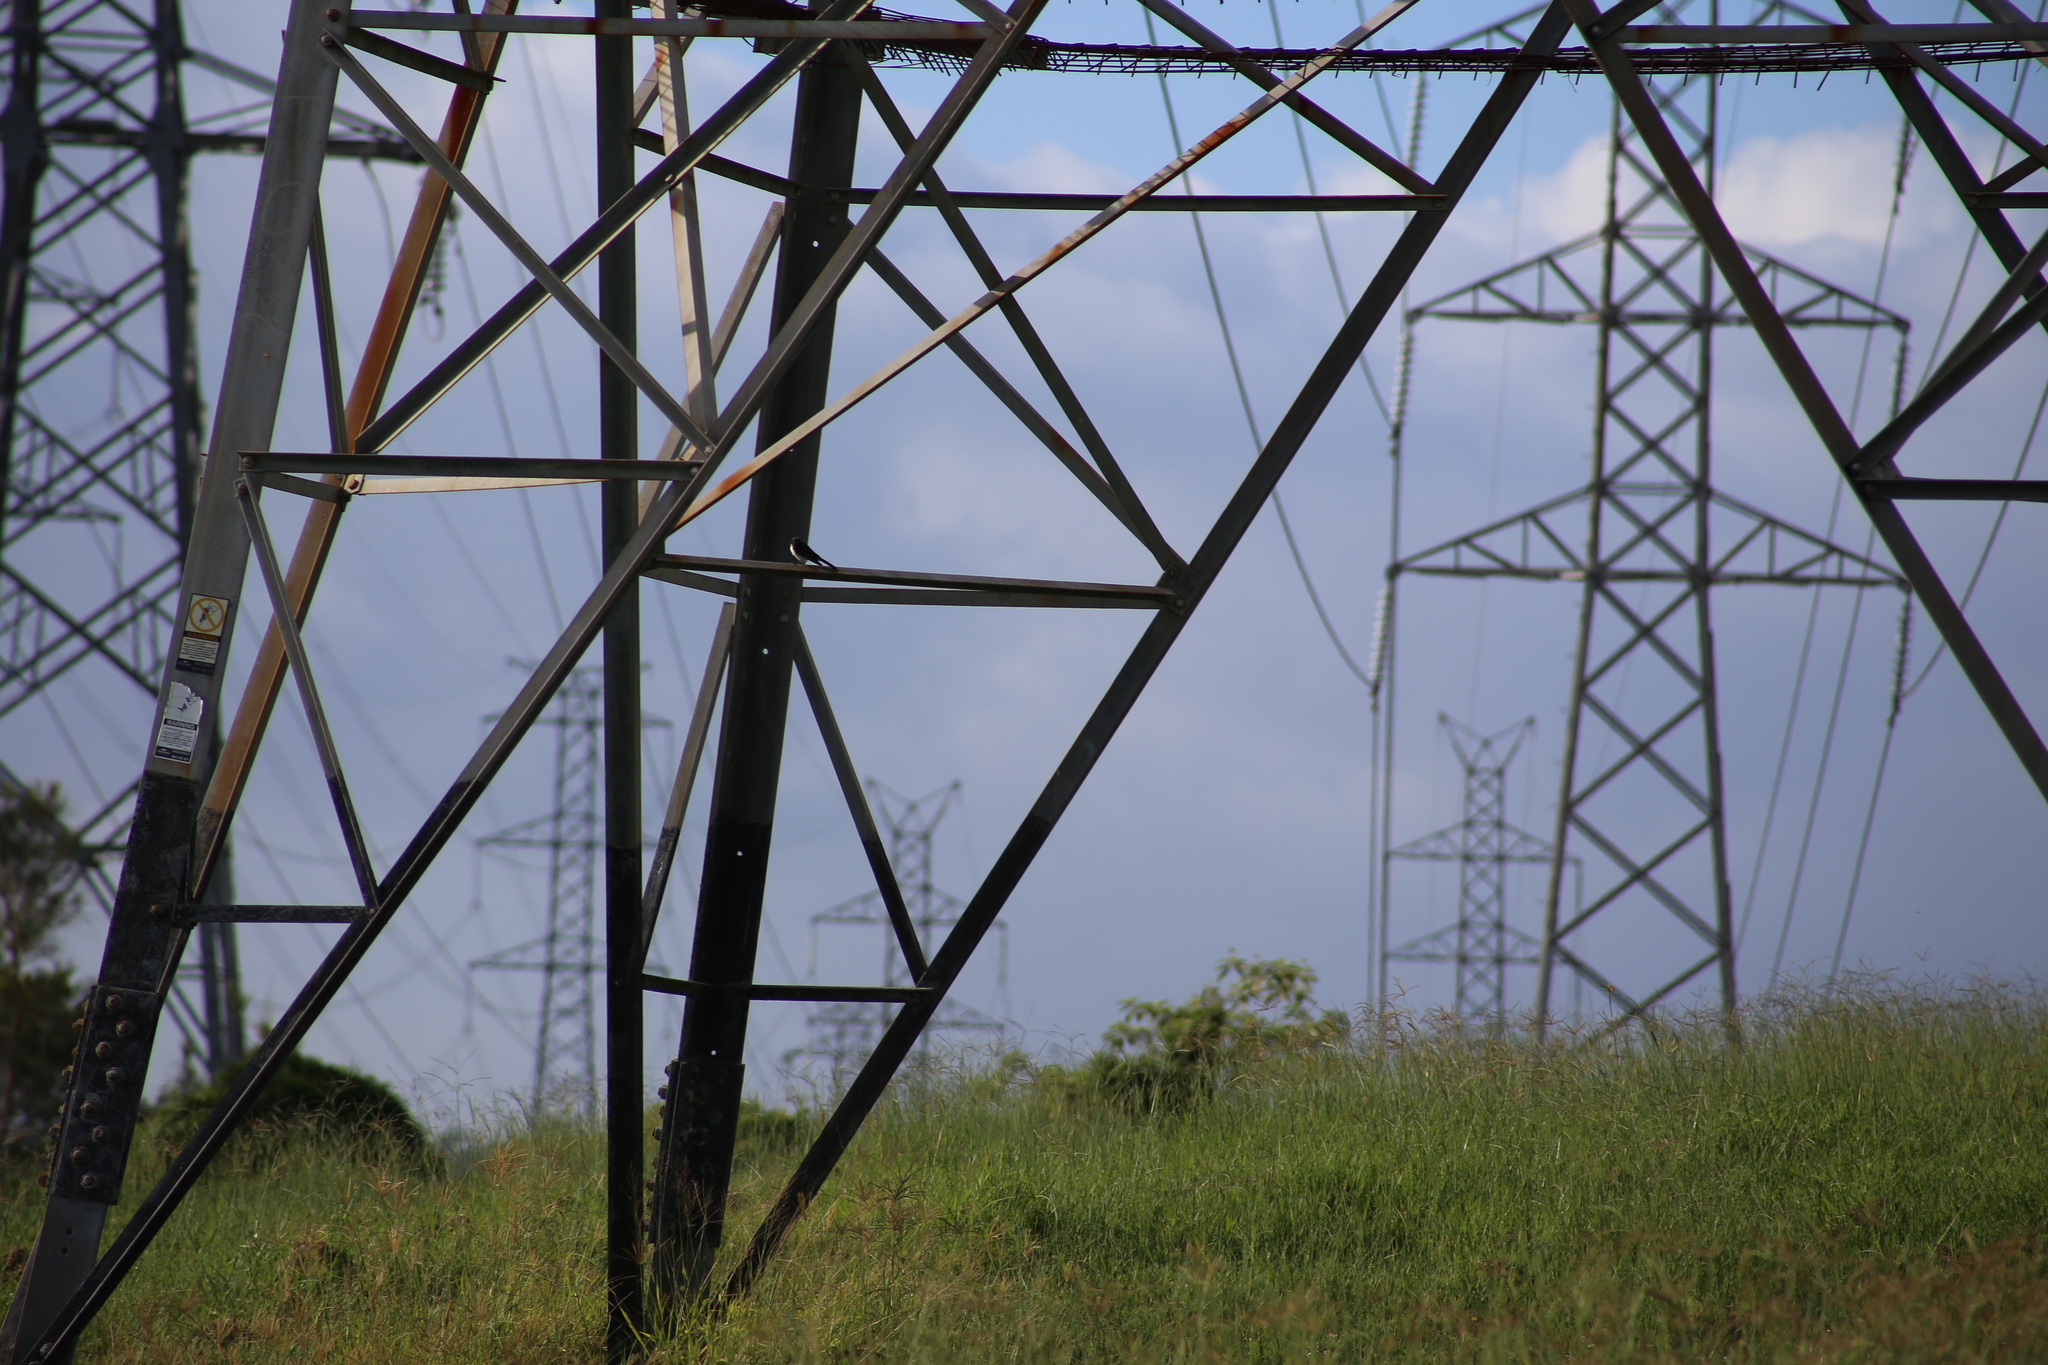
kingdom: Animalia
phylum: Chordata
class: Aves
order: Passeriformes
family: Rhipiduridae
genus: Rhipidura
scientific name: Rhipidura leucophrys
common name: Willie wagtail
